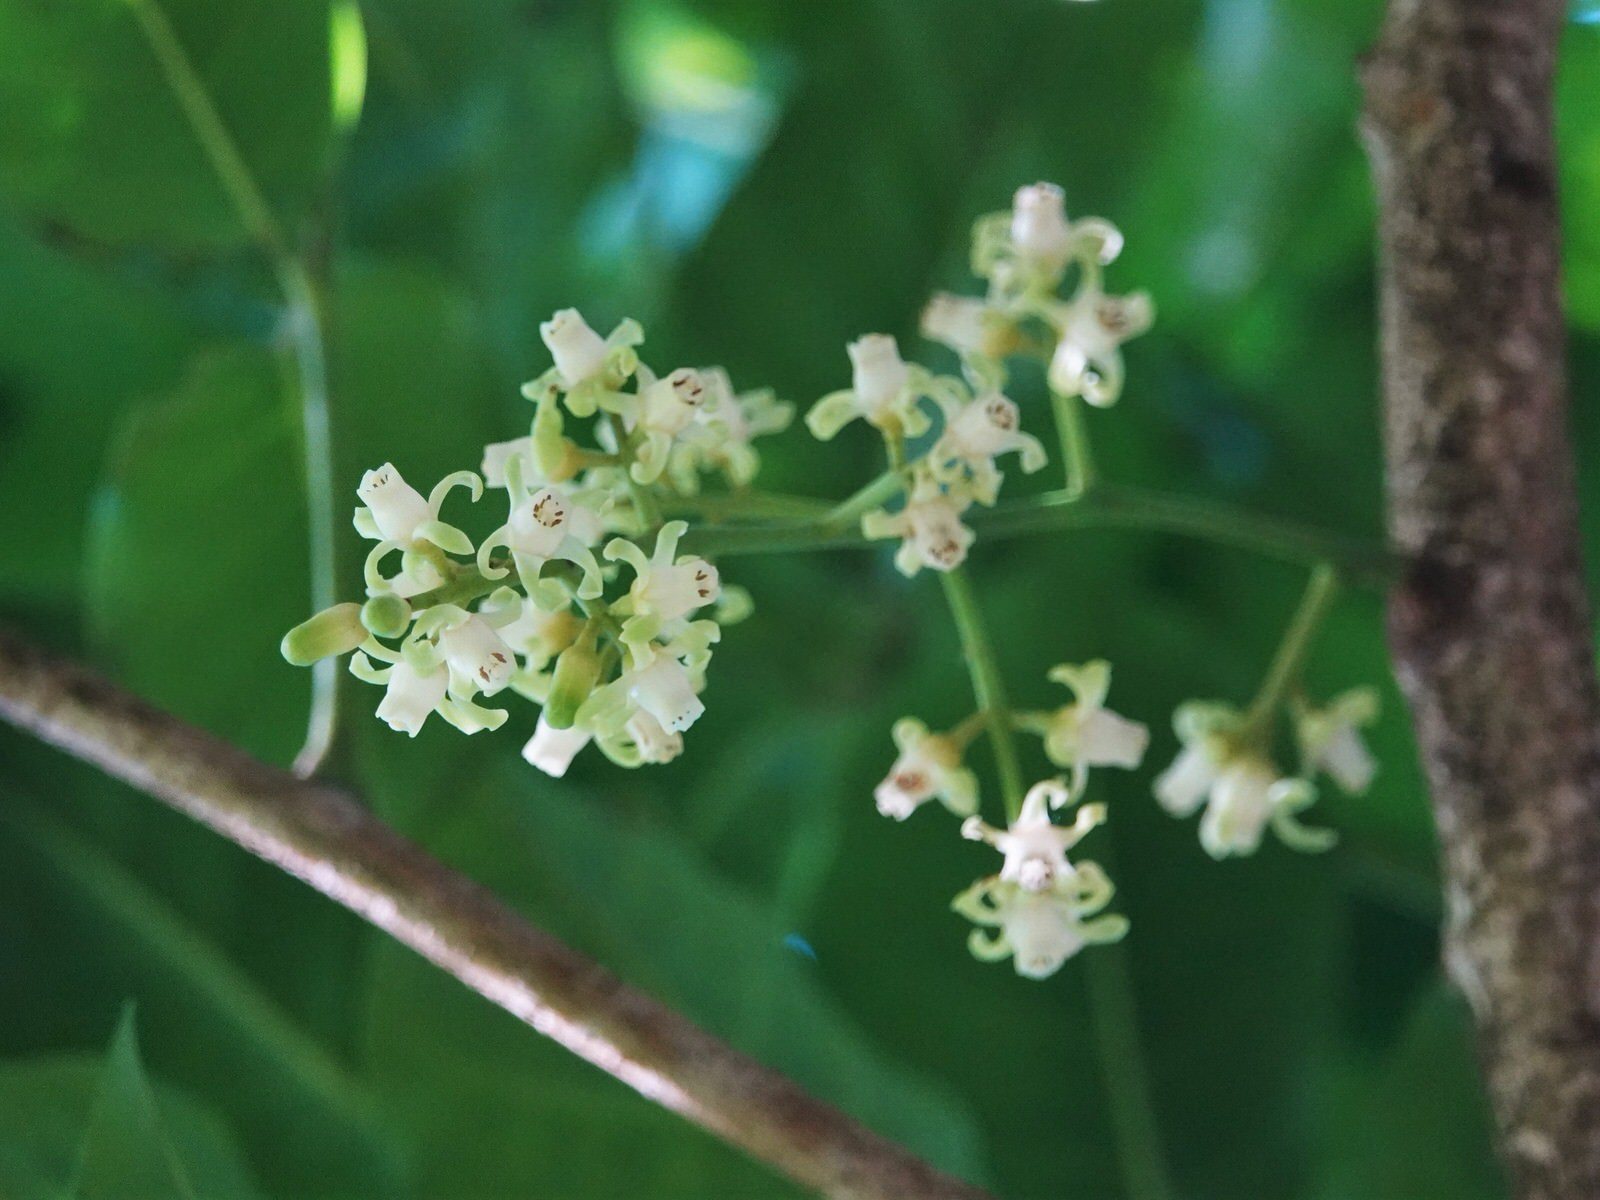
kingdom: Plantae
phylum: Tracheophyta
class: Magnoliopsida
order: Sapindales
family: Meliaceae
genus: Didymocheton
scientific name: Didymocheton spectabilis
